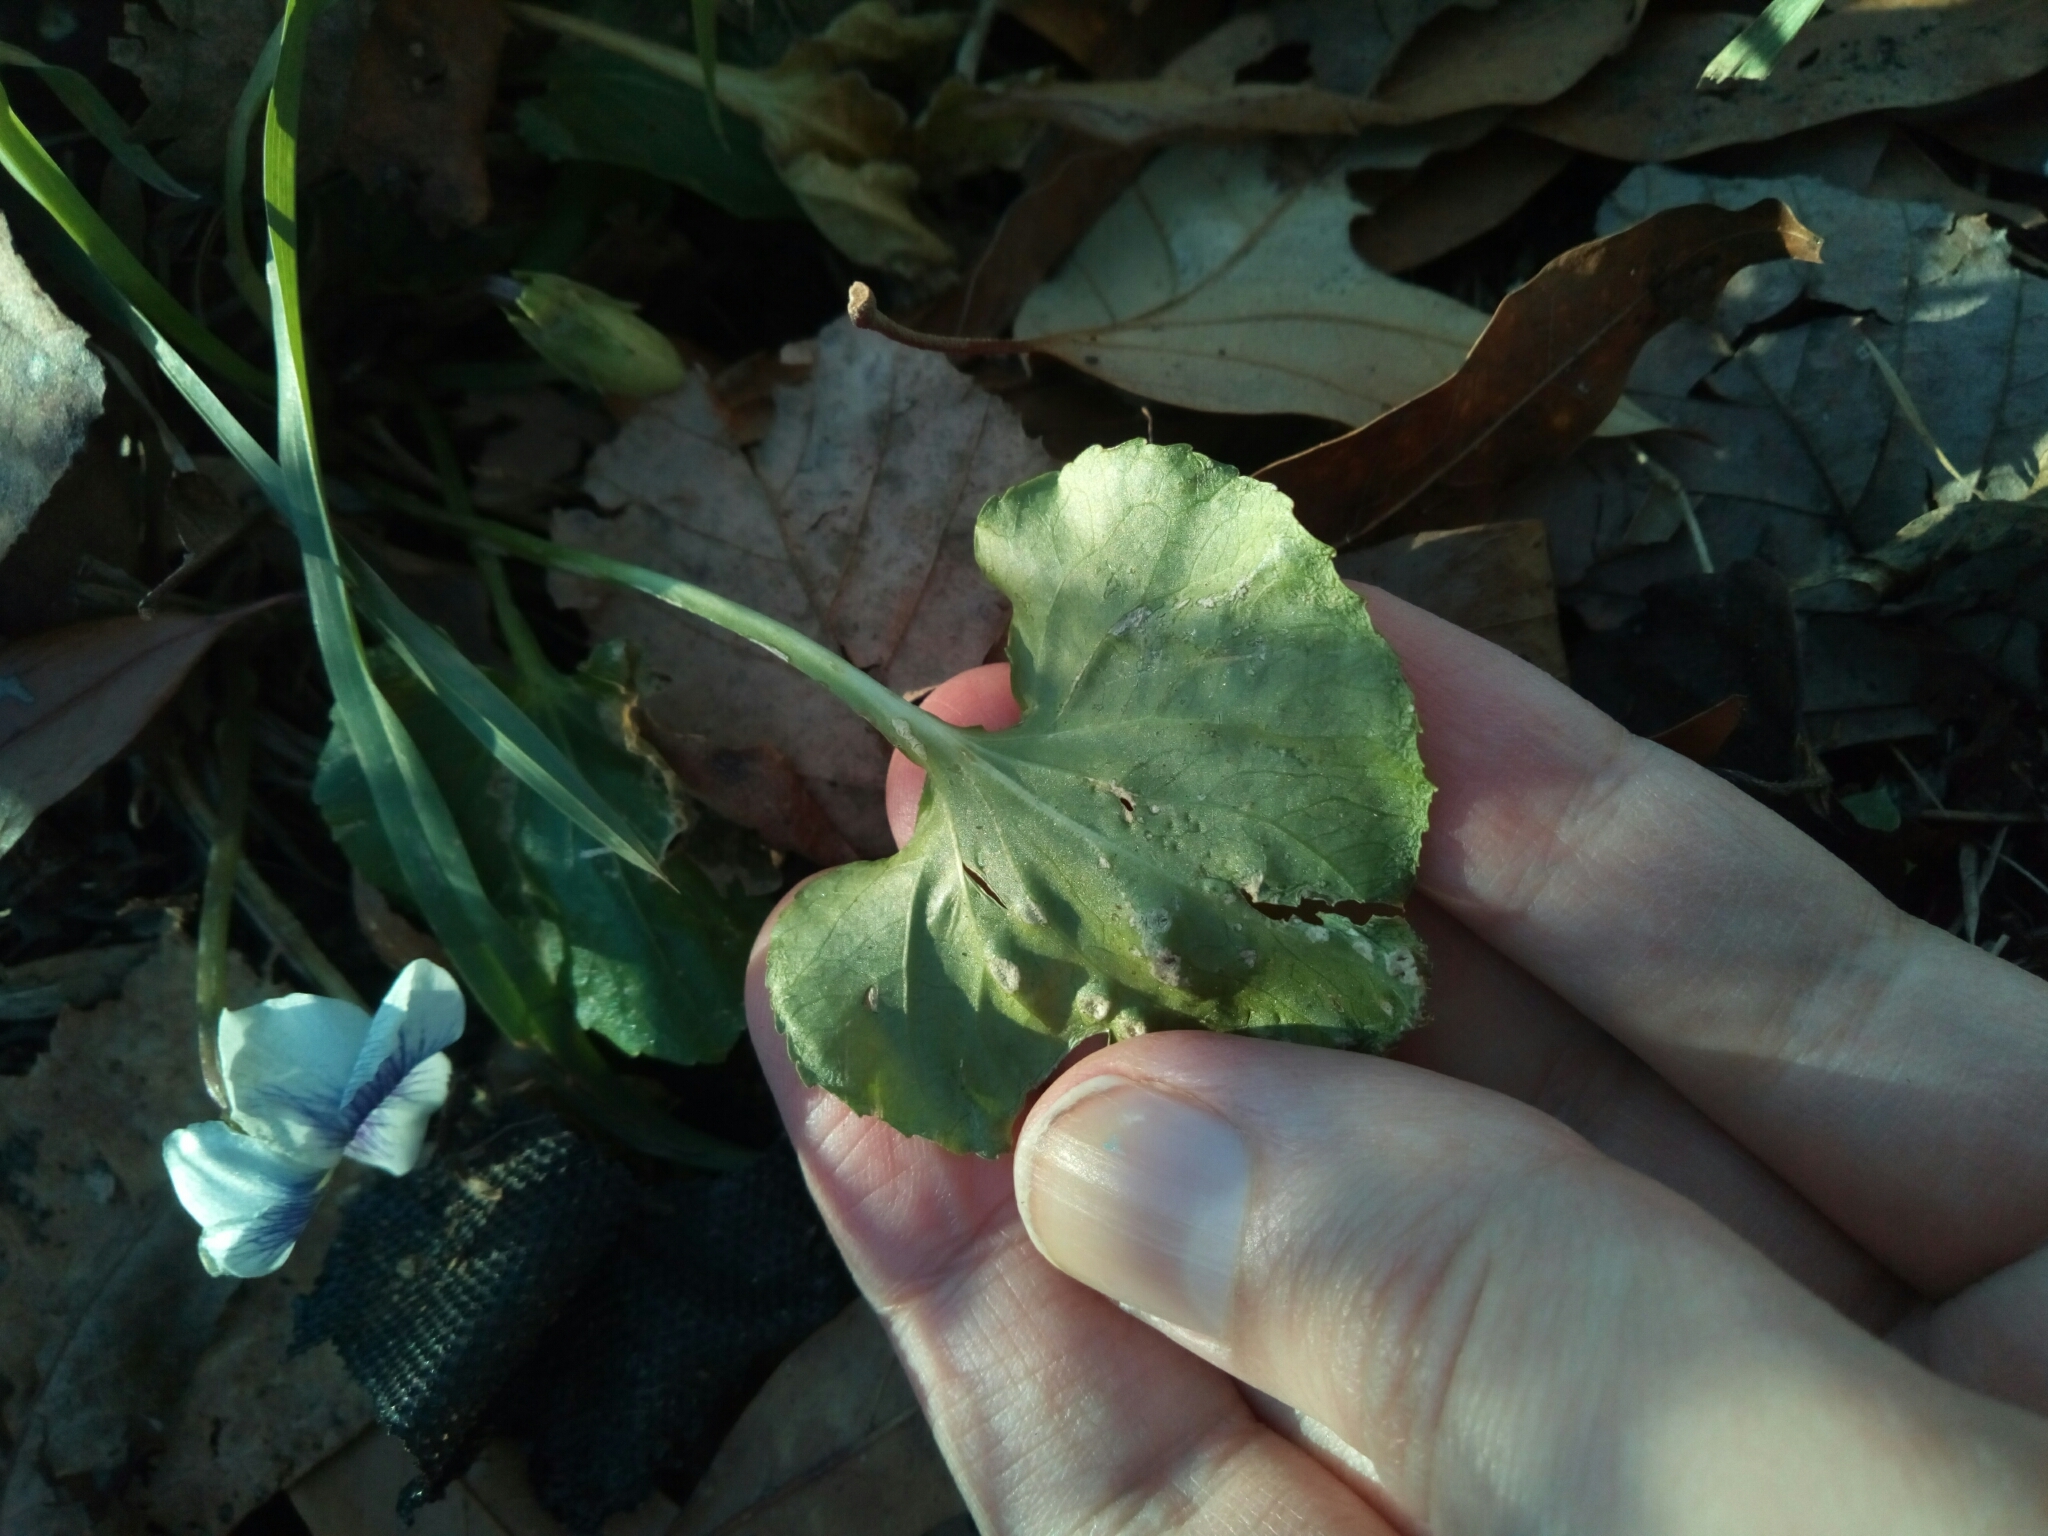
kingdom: Plantae
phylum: Tracheophyta
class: Magnoliopsida
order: Malpighiales
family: Violaceae
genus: Viola
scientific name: Viola sororia
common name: Dooryard violet
